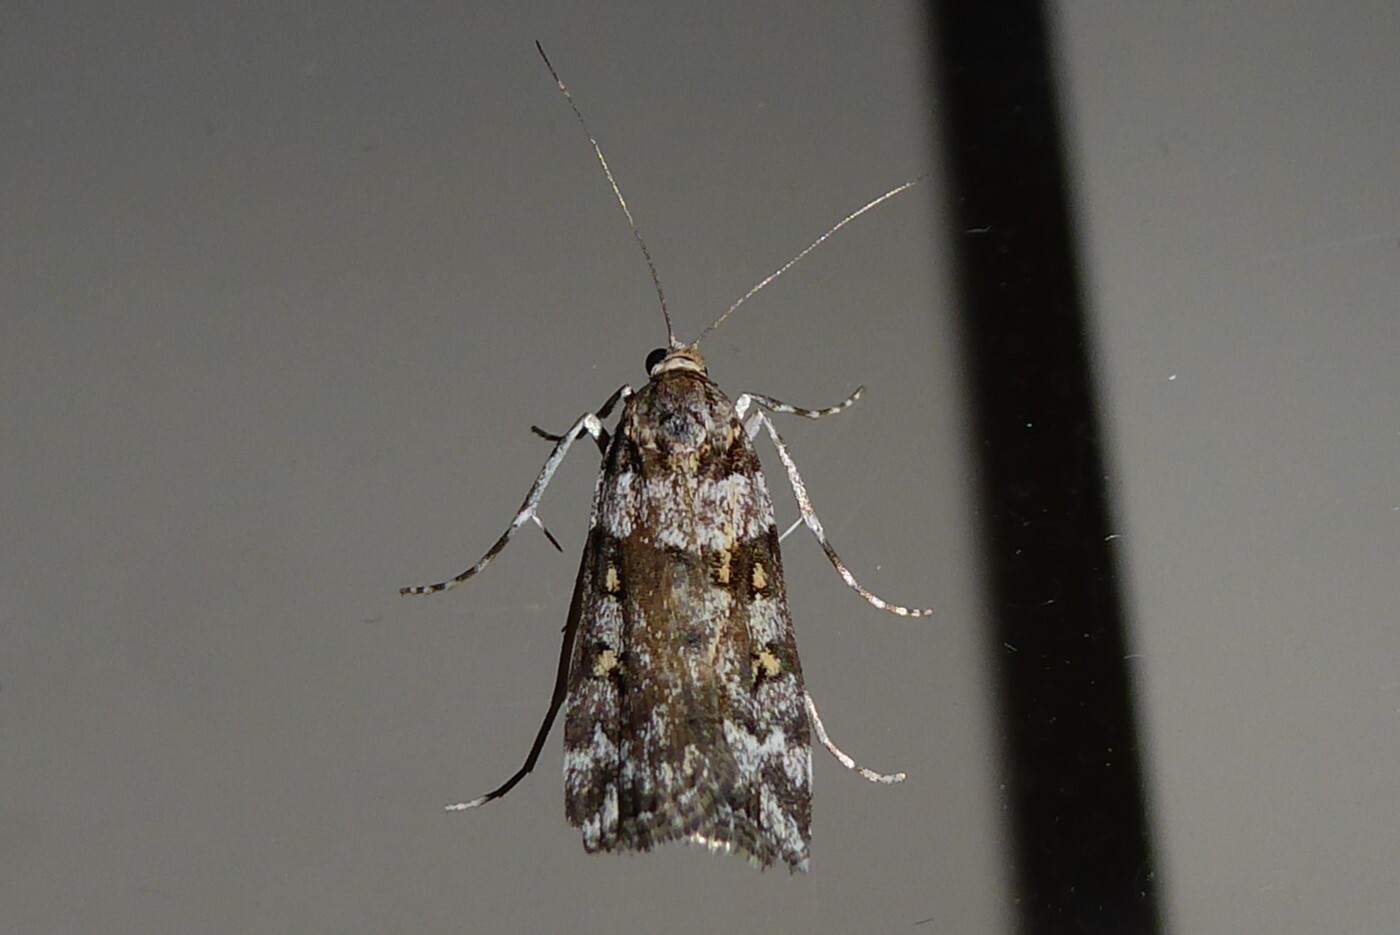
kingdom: Animalia
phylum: Arthropoda
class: Insecta
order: Lepidoptera
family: Crambidae
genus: Scoparia
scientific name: Scoparia tetracycla
